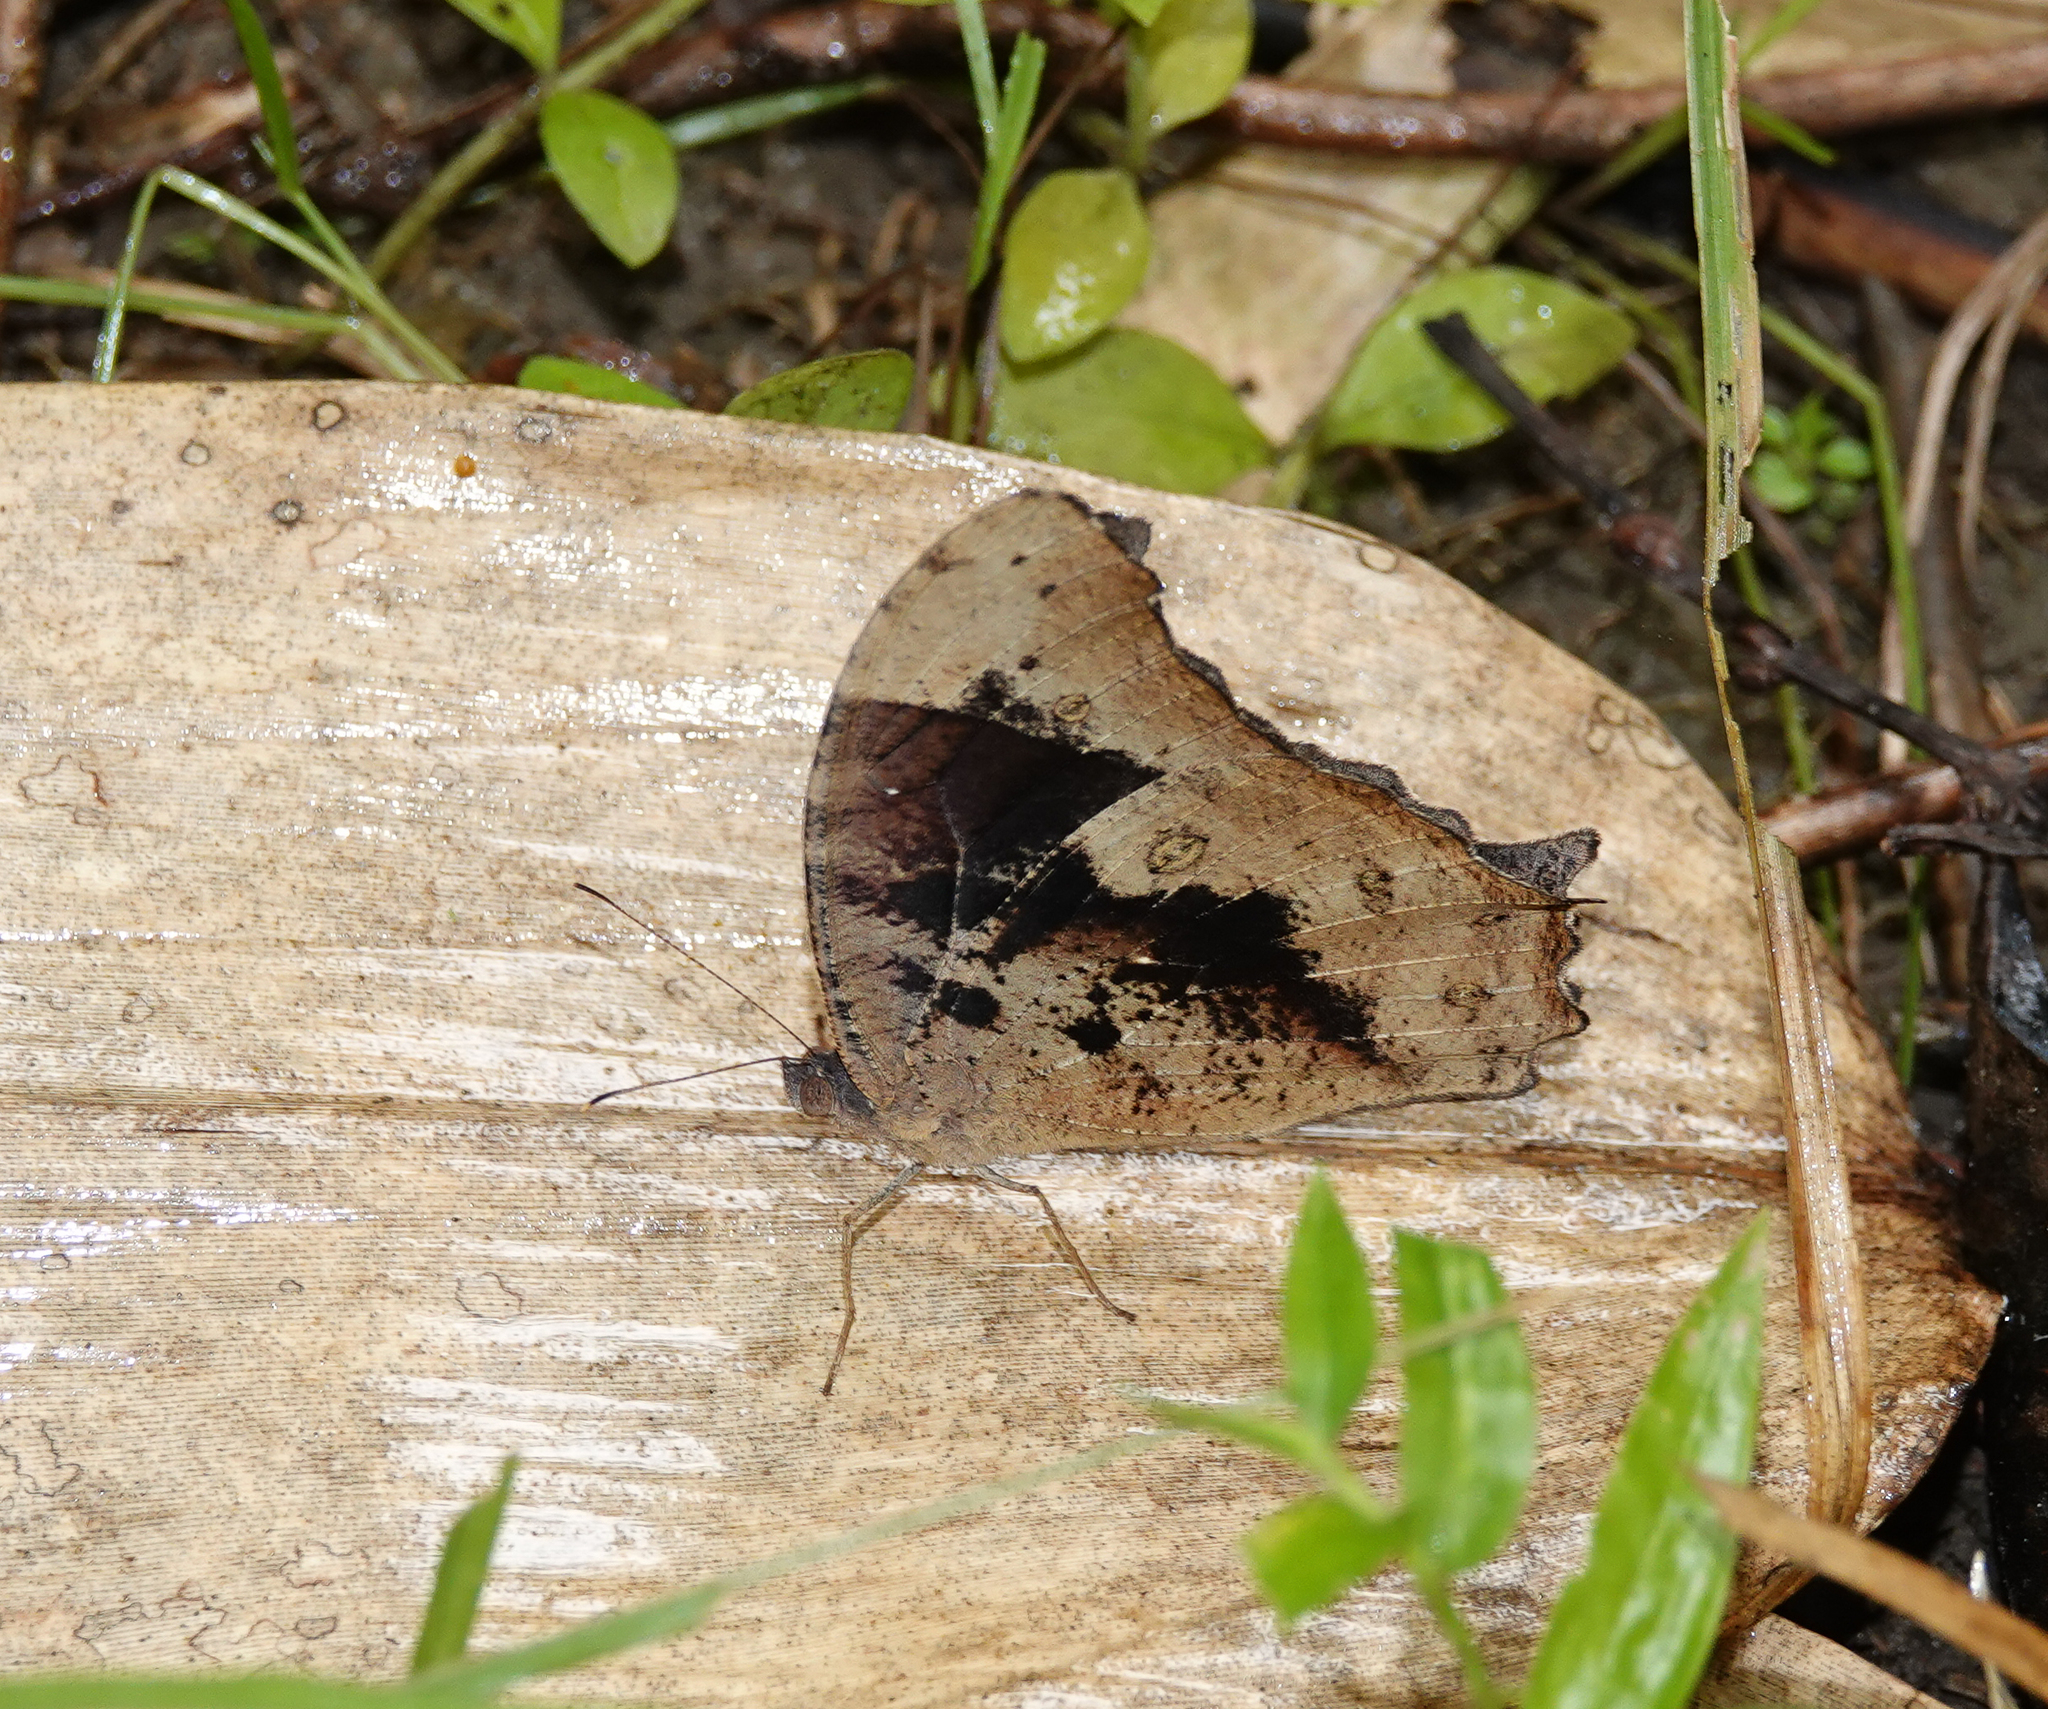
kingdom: Animalia
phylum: Arthropoda
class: Insecta
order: Lepidoptera
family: Nymphalidae
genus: Melanitis
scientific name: Melanitis leda
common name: Twilight brown
